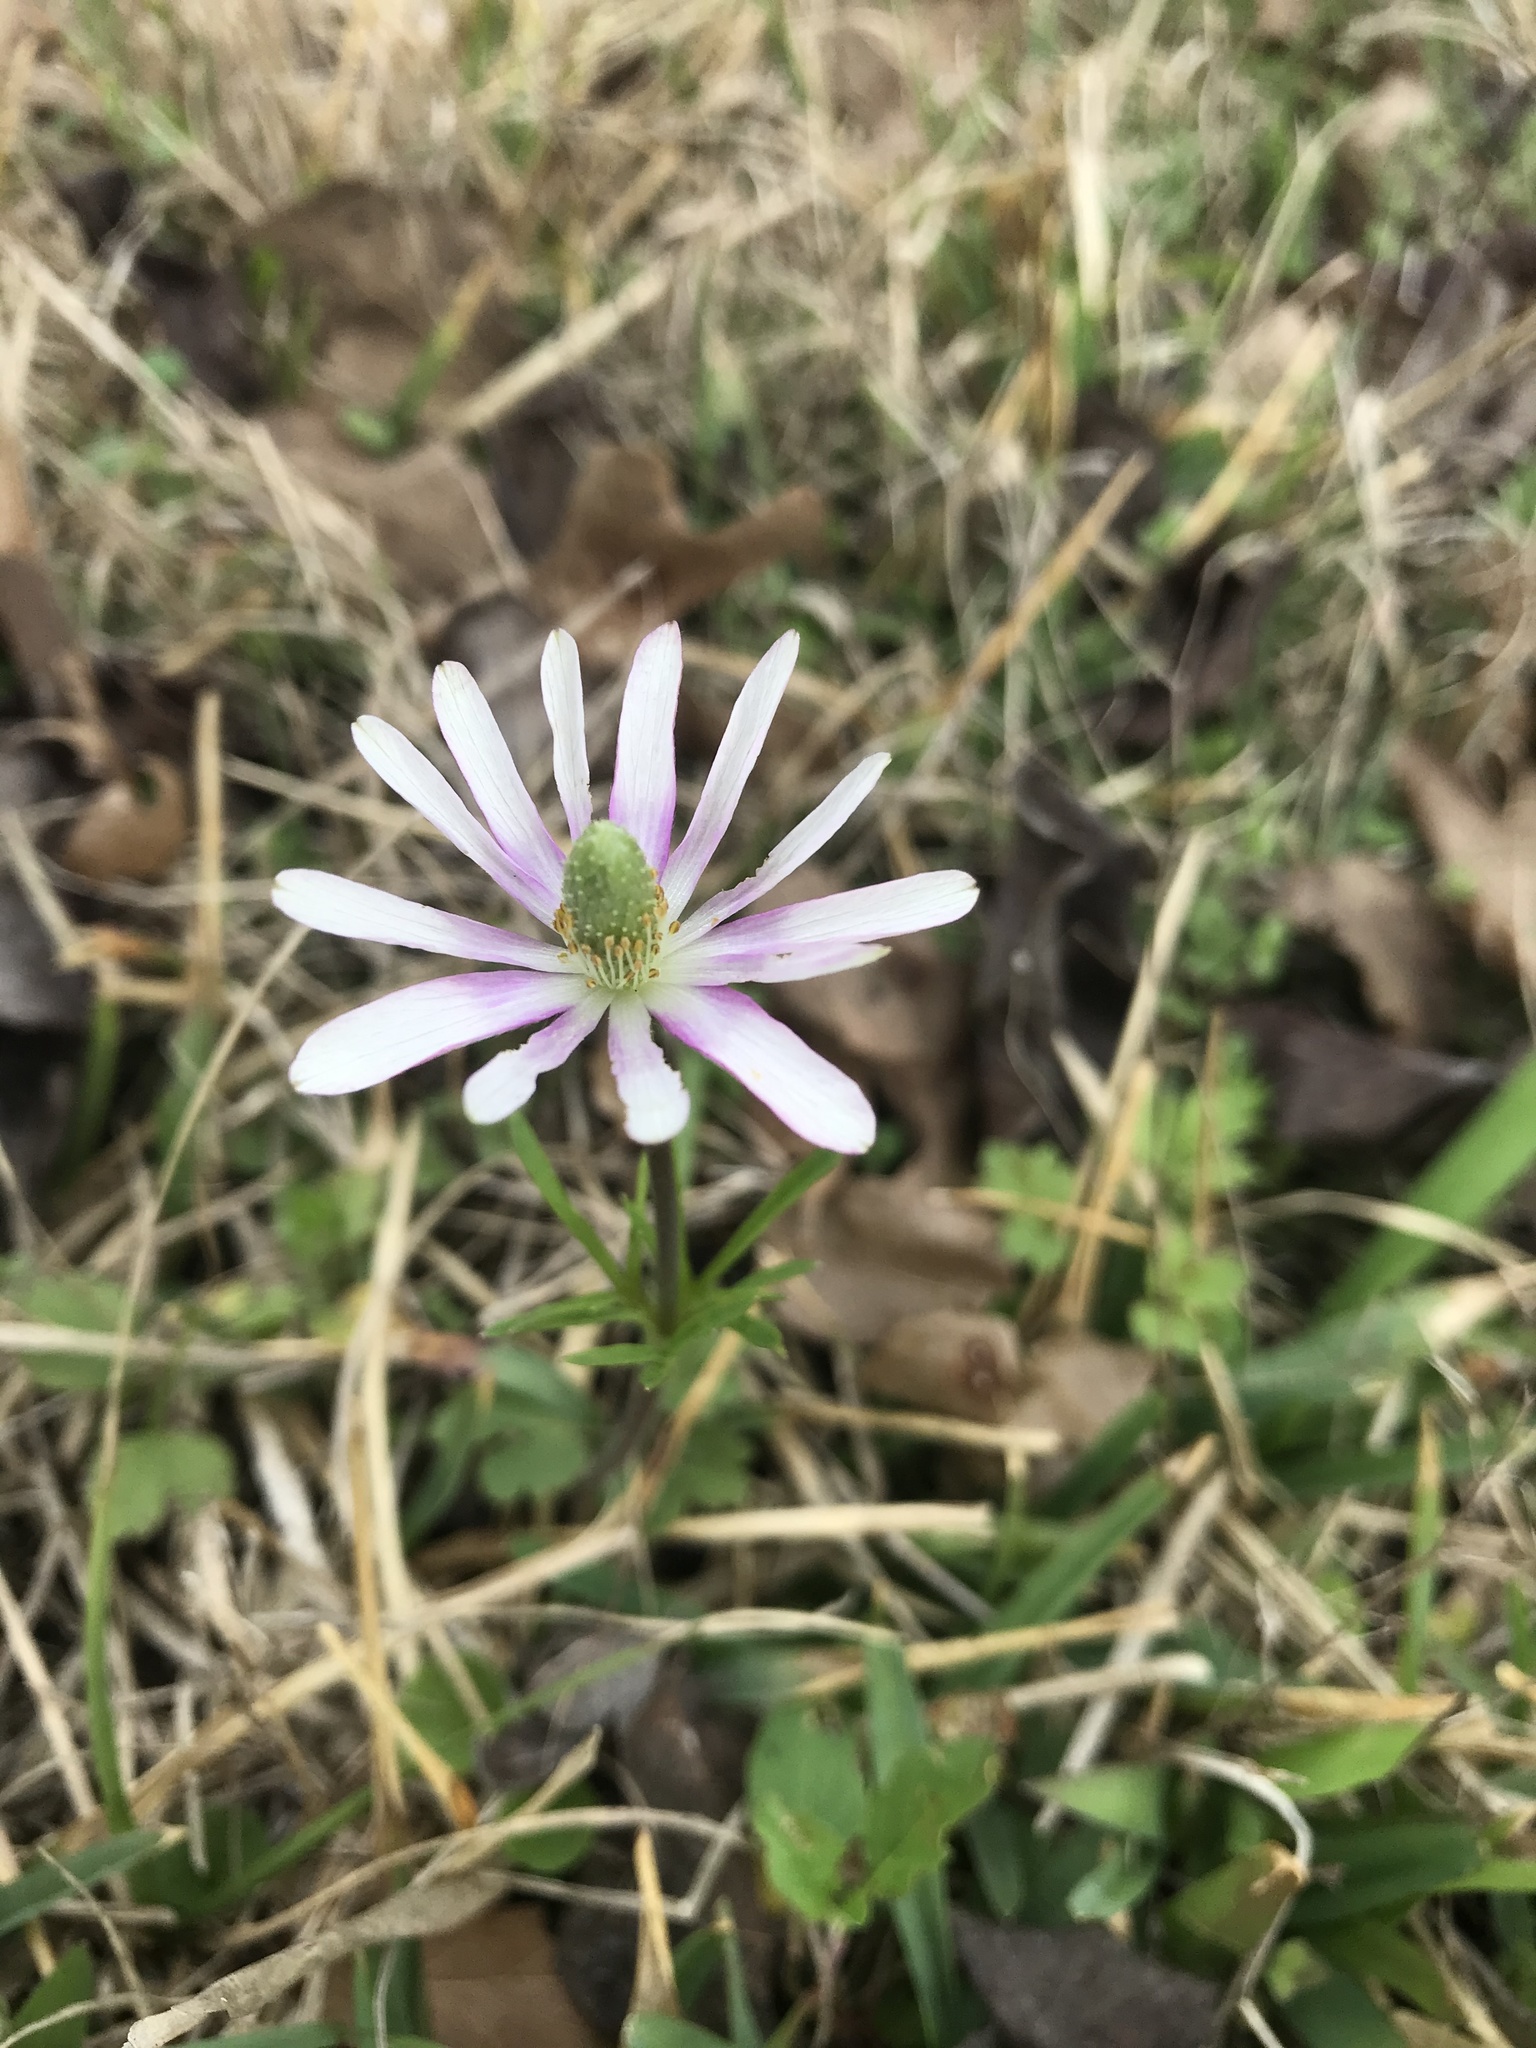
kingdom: Plantae
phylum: Tracheophyta
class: Magnoliopsida
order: Ranunculales
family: Ranunculaceae
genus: Anemone
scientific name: Anemone berlandieri
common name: Ten-petal anemone
